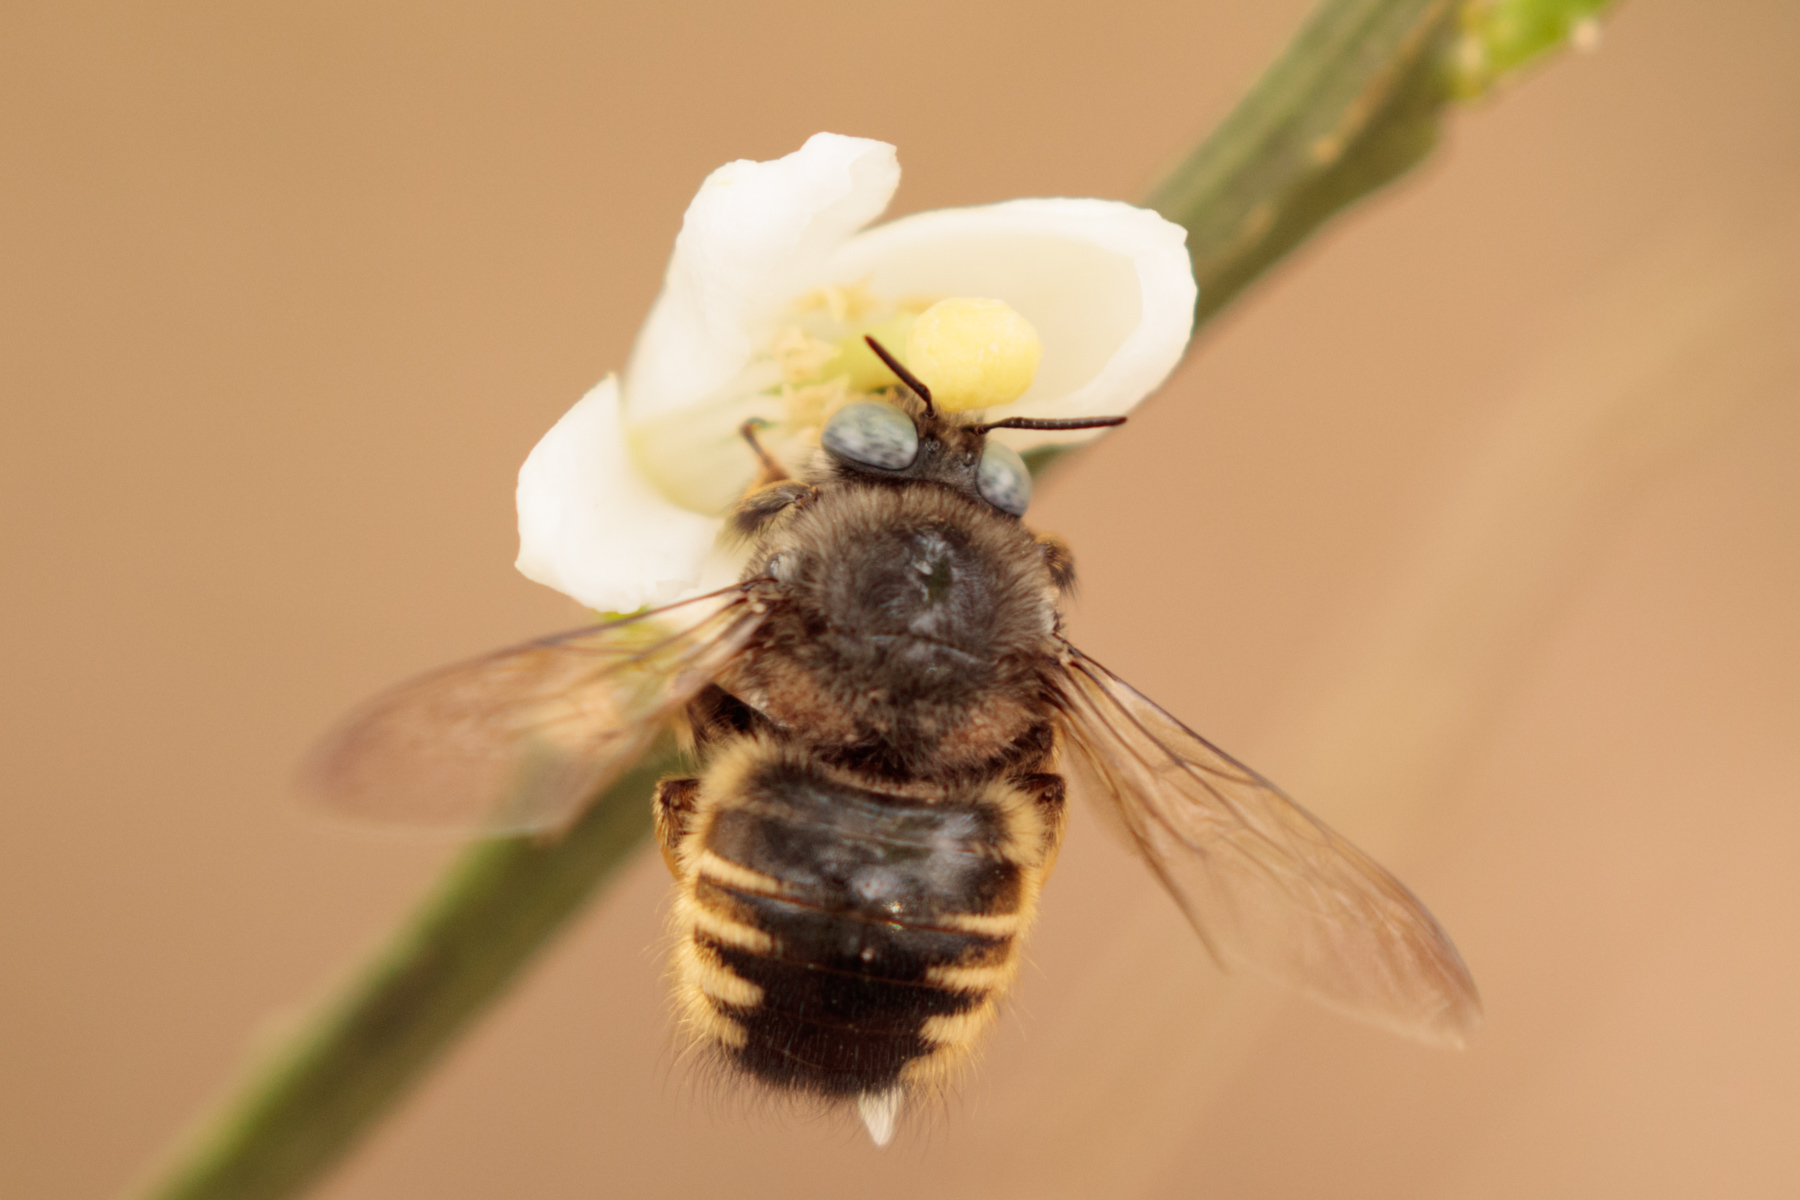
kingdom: Animalia
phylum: Arthropoda
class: Insecta
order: Hymenoptera
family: Apidae
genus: Xylocopa
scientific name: Xylocopa tabaniformis
